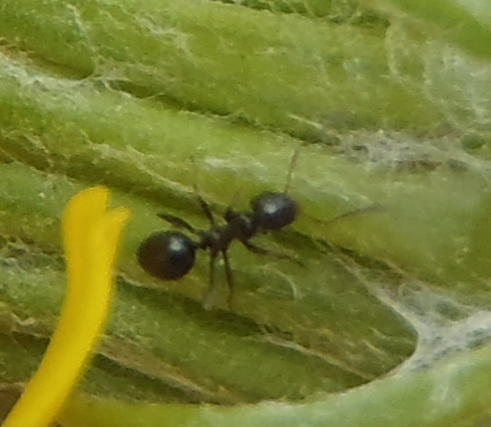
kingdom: Animalia
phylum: Arthropoda
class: Insecta
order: Hymenoptera
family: Formicidae
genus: Lepisiota
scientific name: Lepisiota capensis
